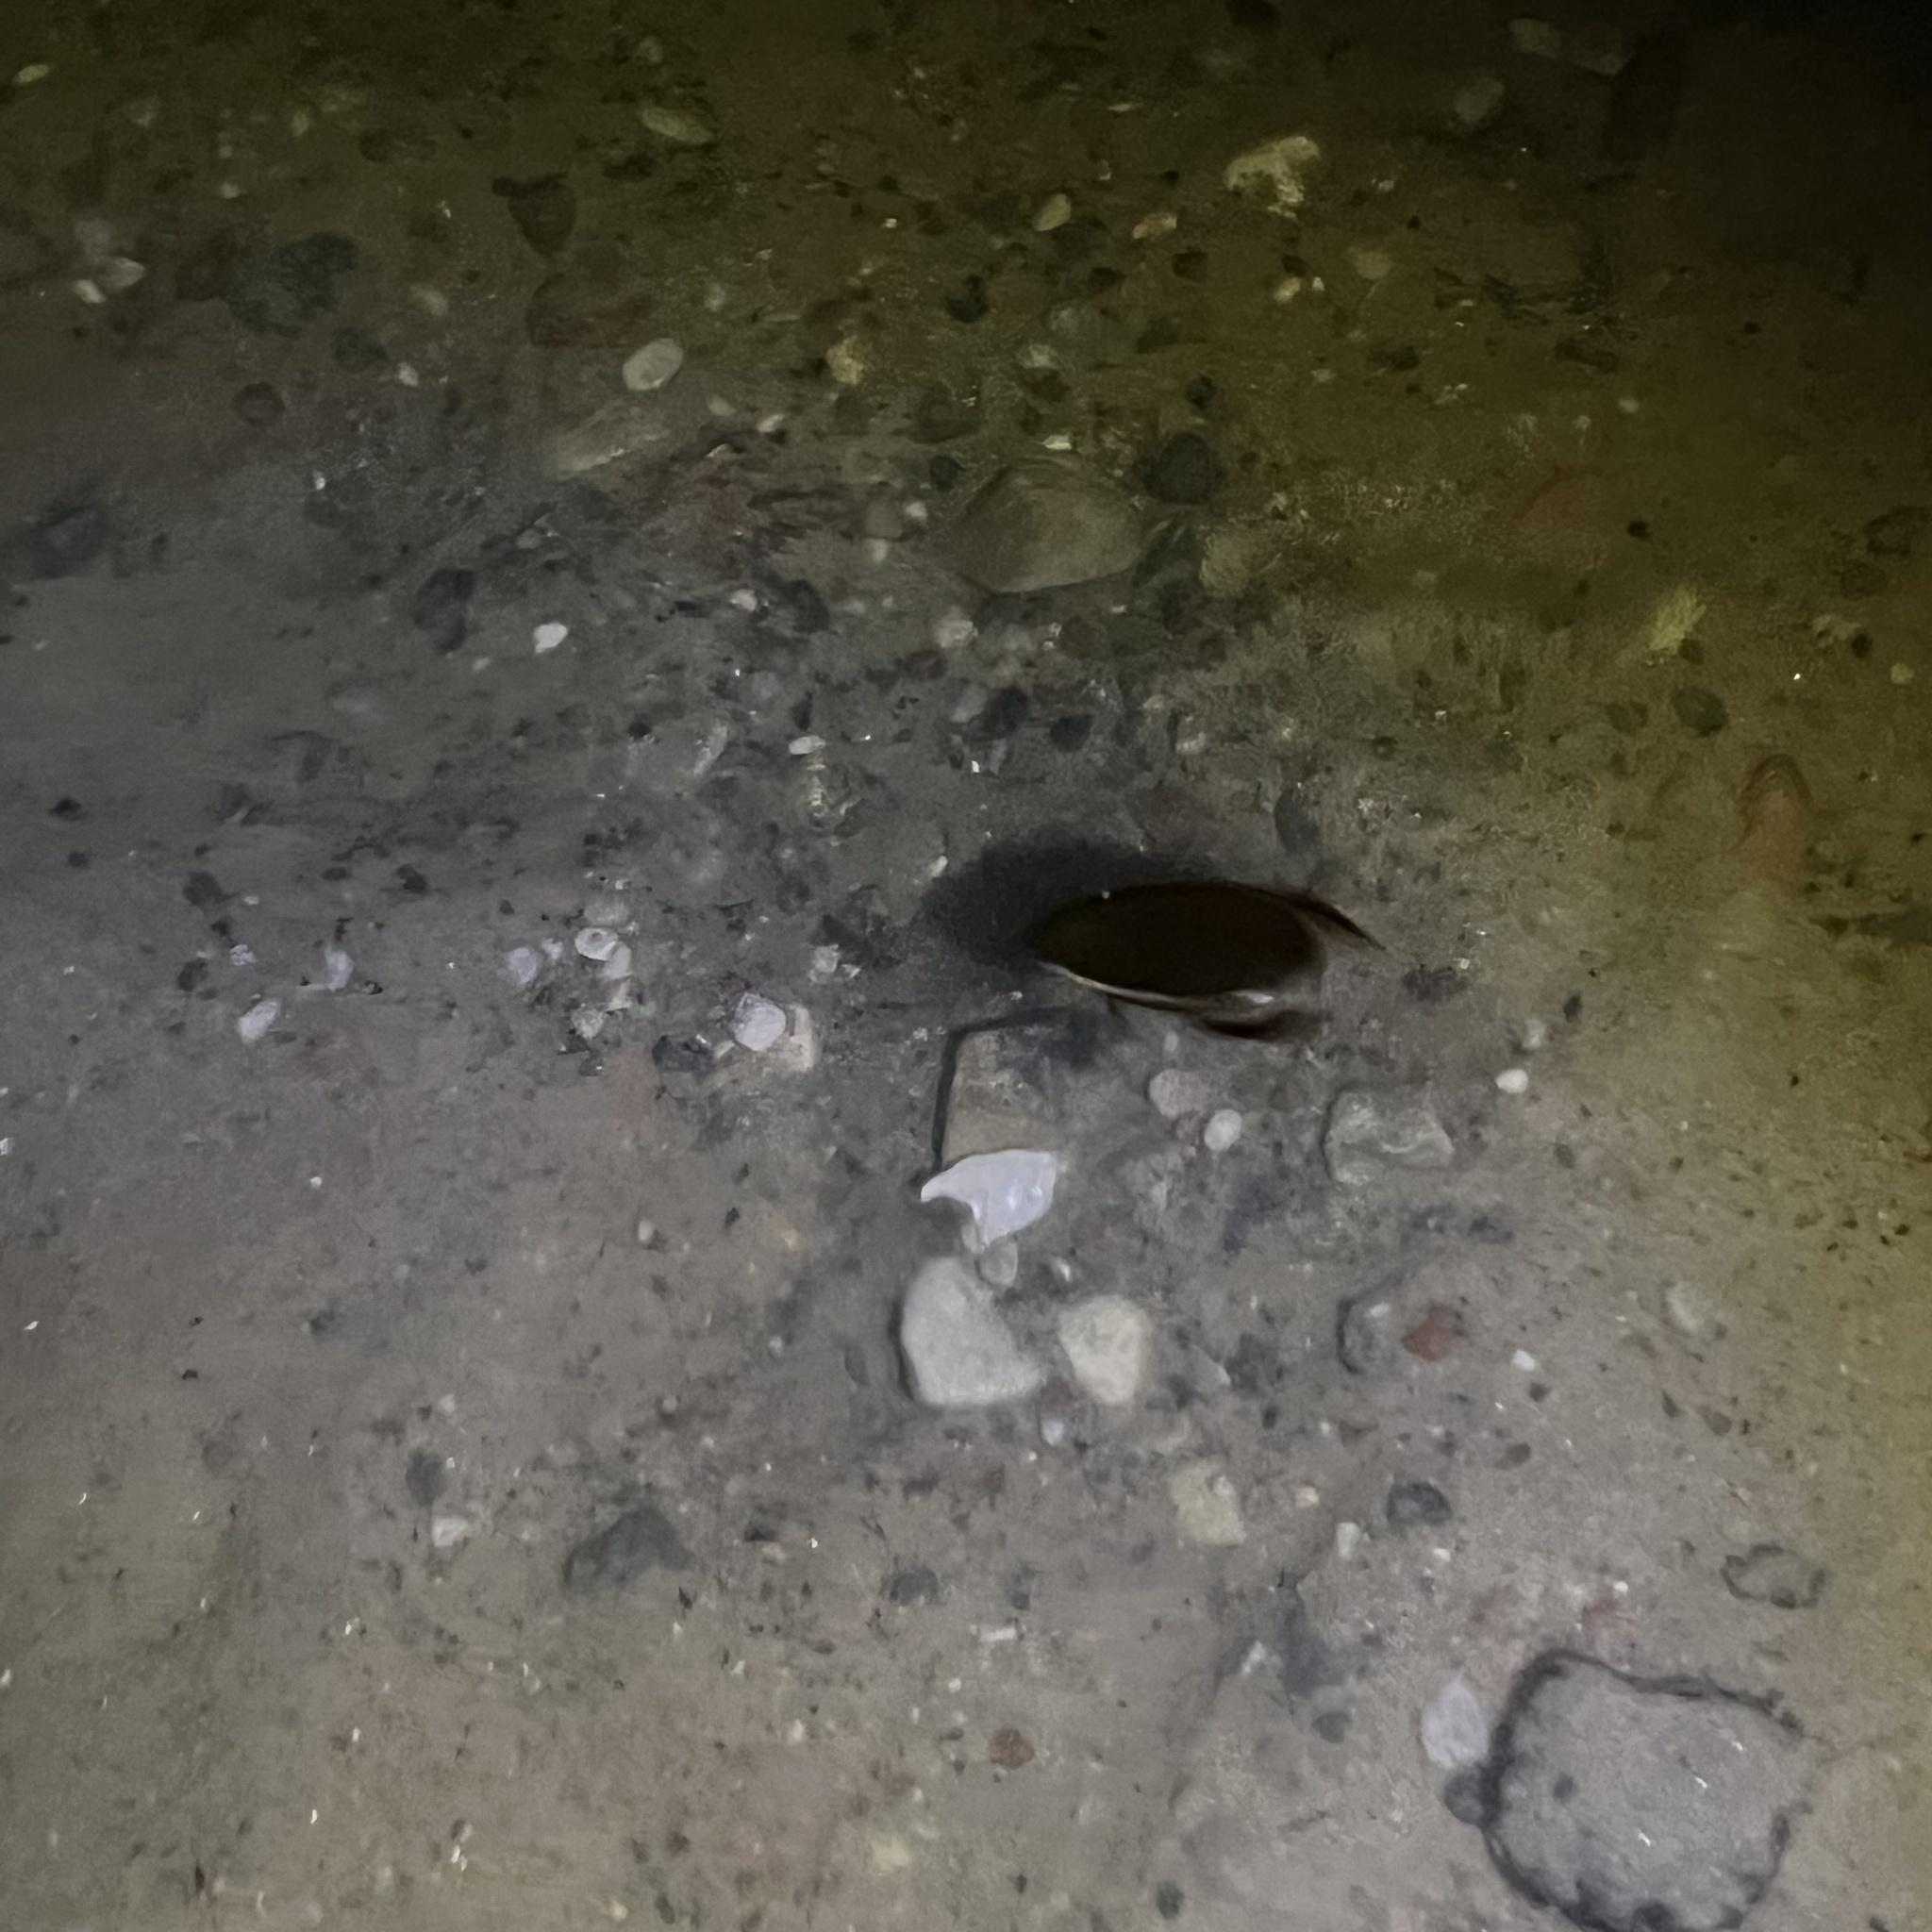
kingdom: Animalia
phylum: Arthropoda
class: Insecta
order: Coleoptera
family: Dytiscidae
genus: Cybister
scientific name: Cybister lateralimarginalis
